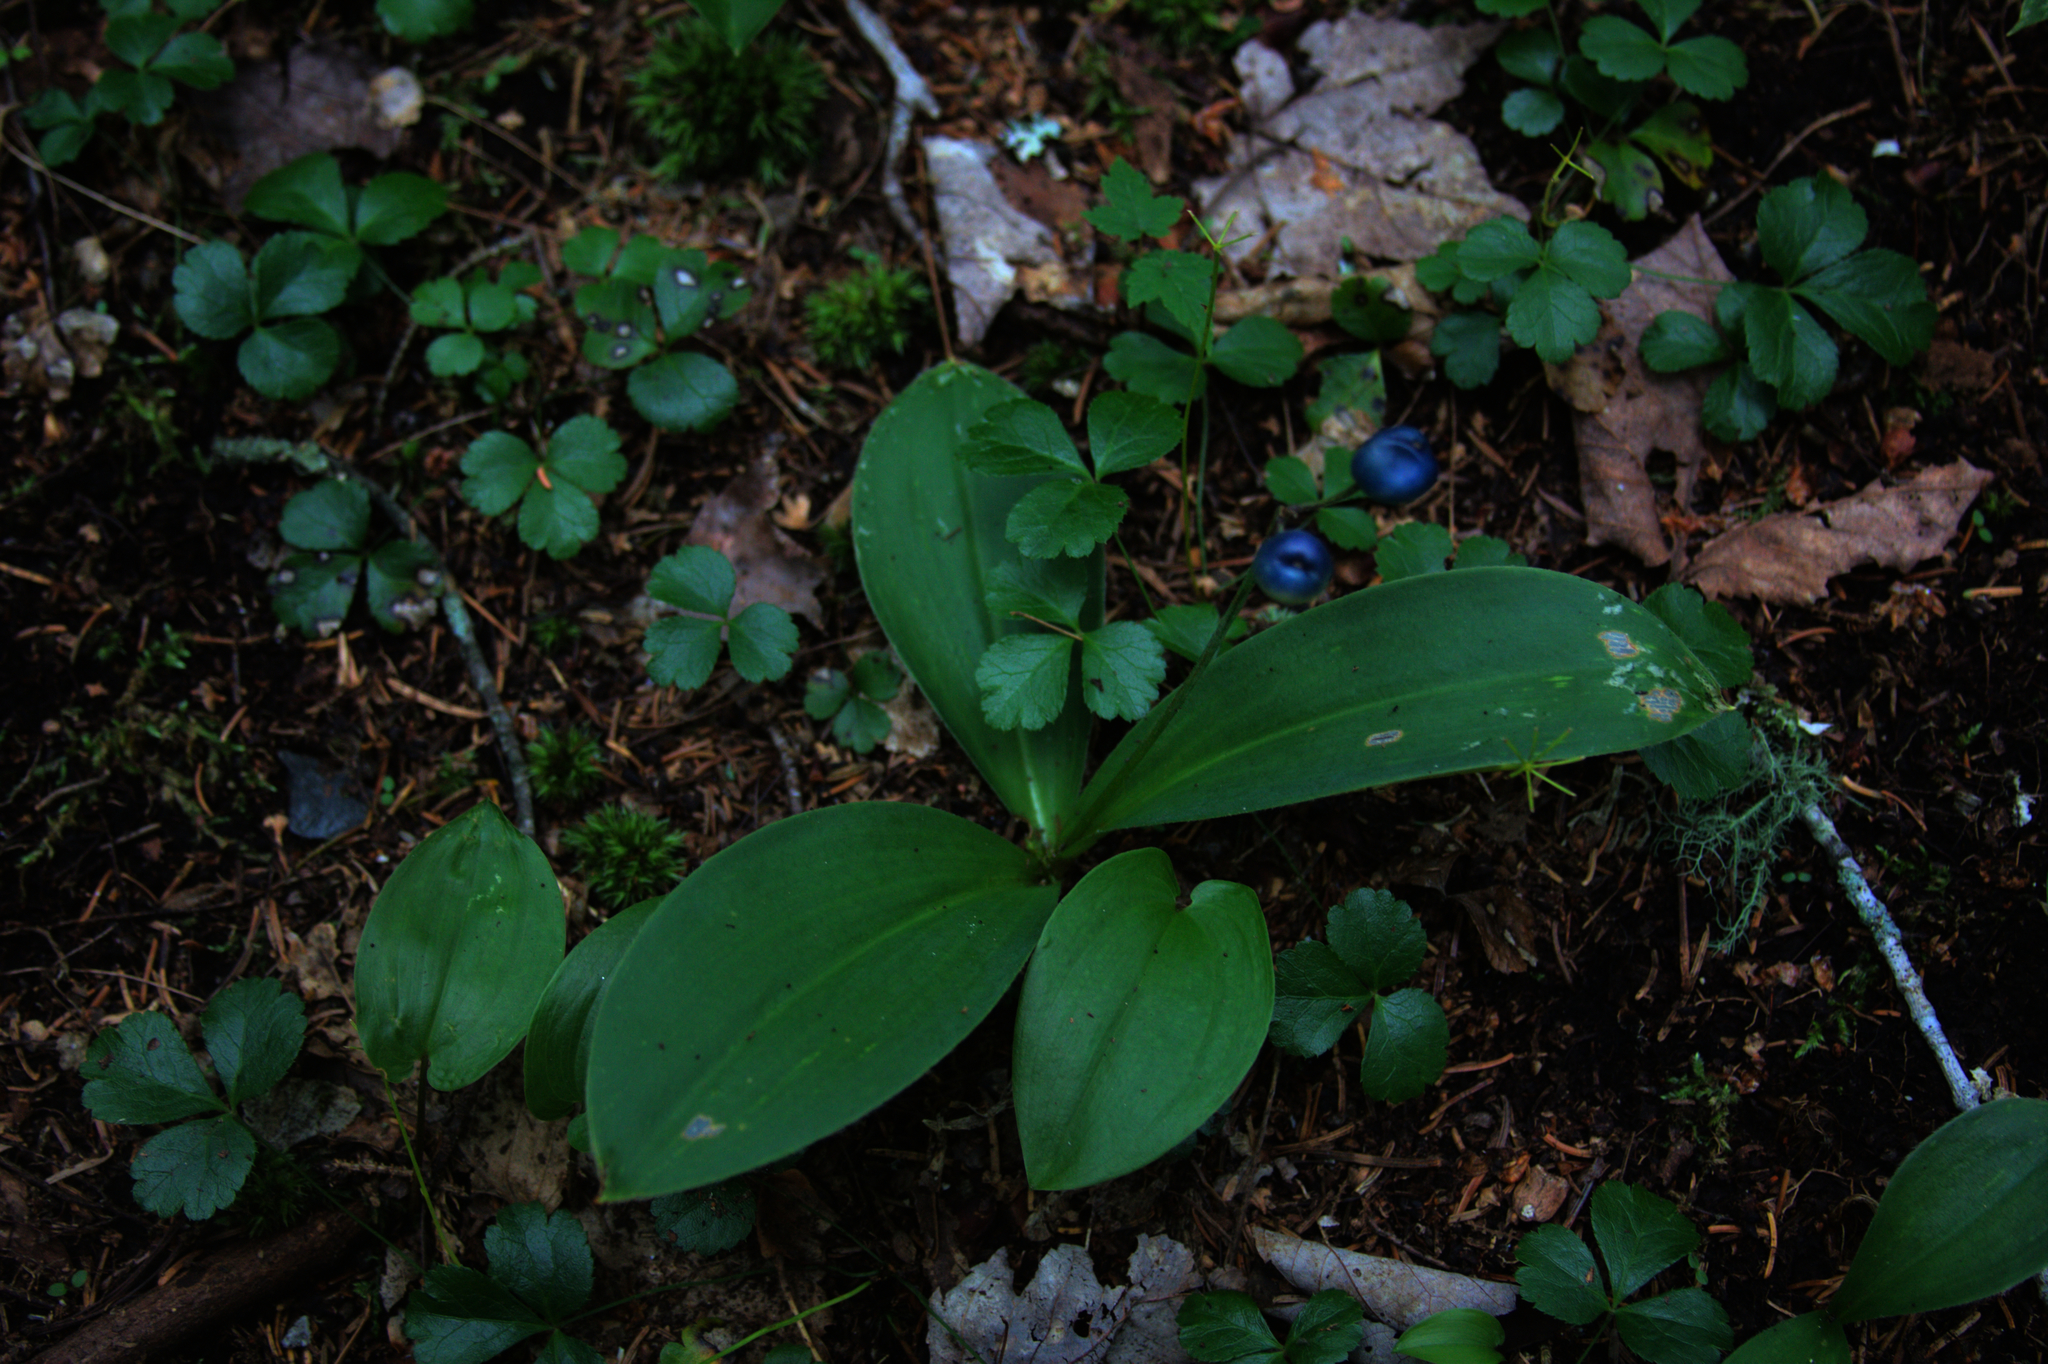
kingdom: Plantae
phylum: Tracheophyta
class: Liliopsida
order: Liliales
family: Liliaceae
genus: Clintonia
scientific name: Clintonia borealis
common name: Yellow clintonia
